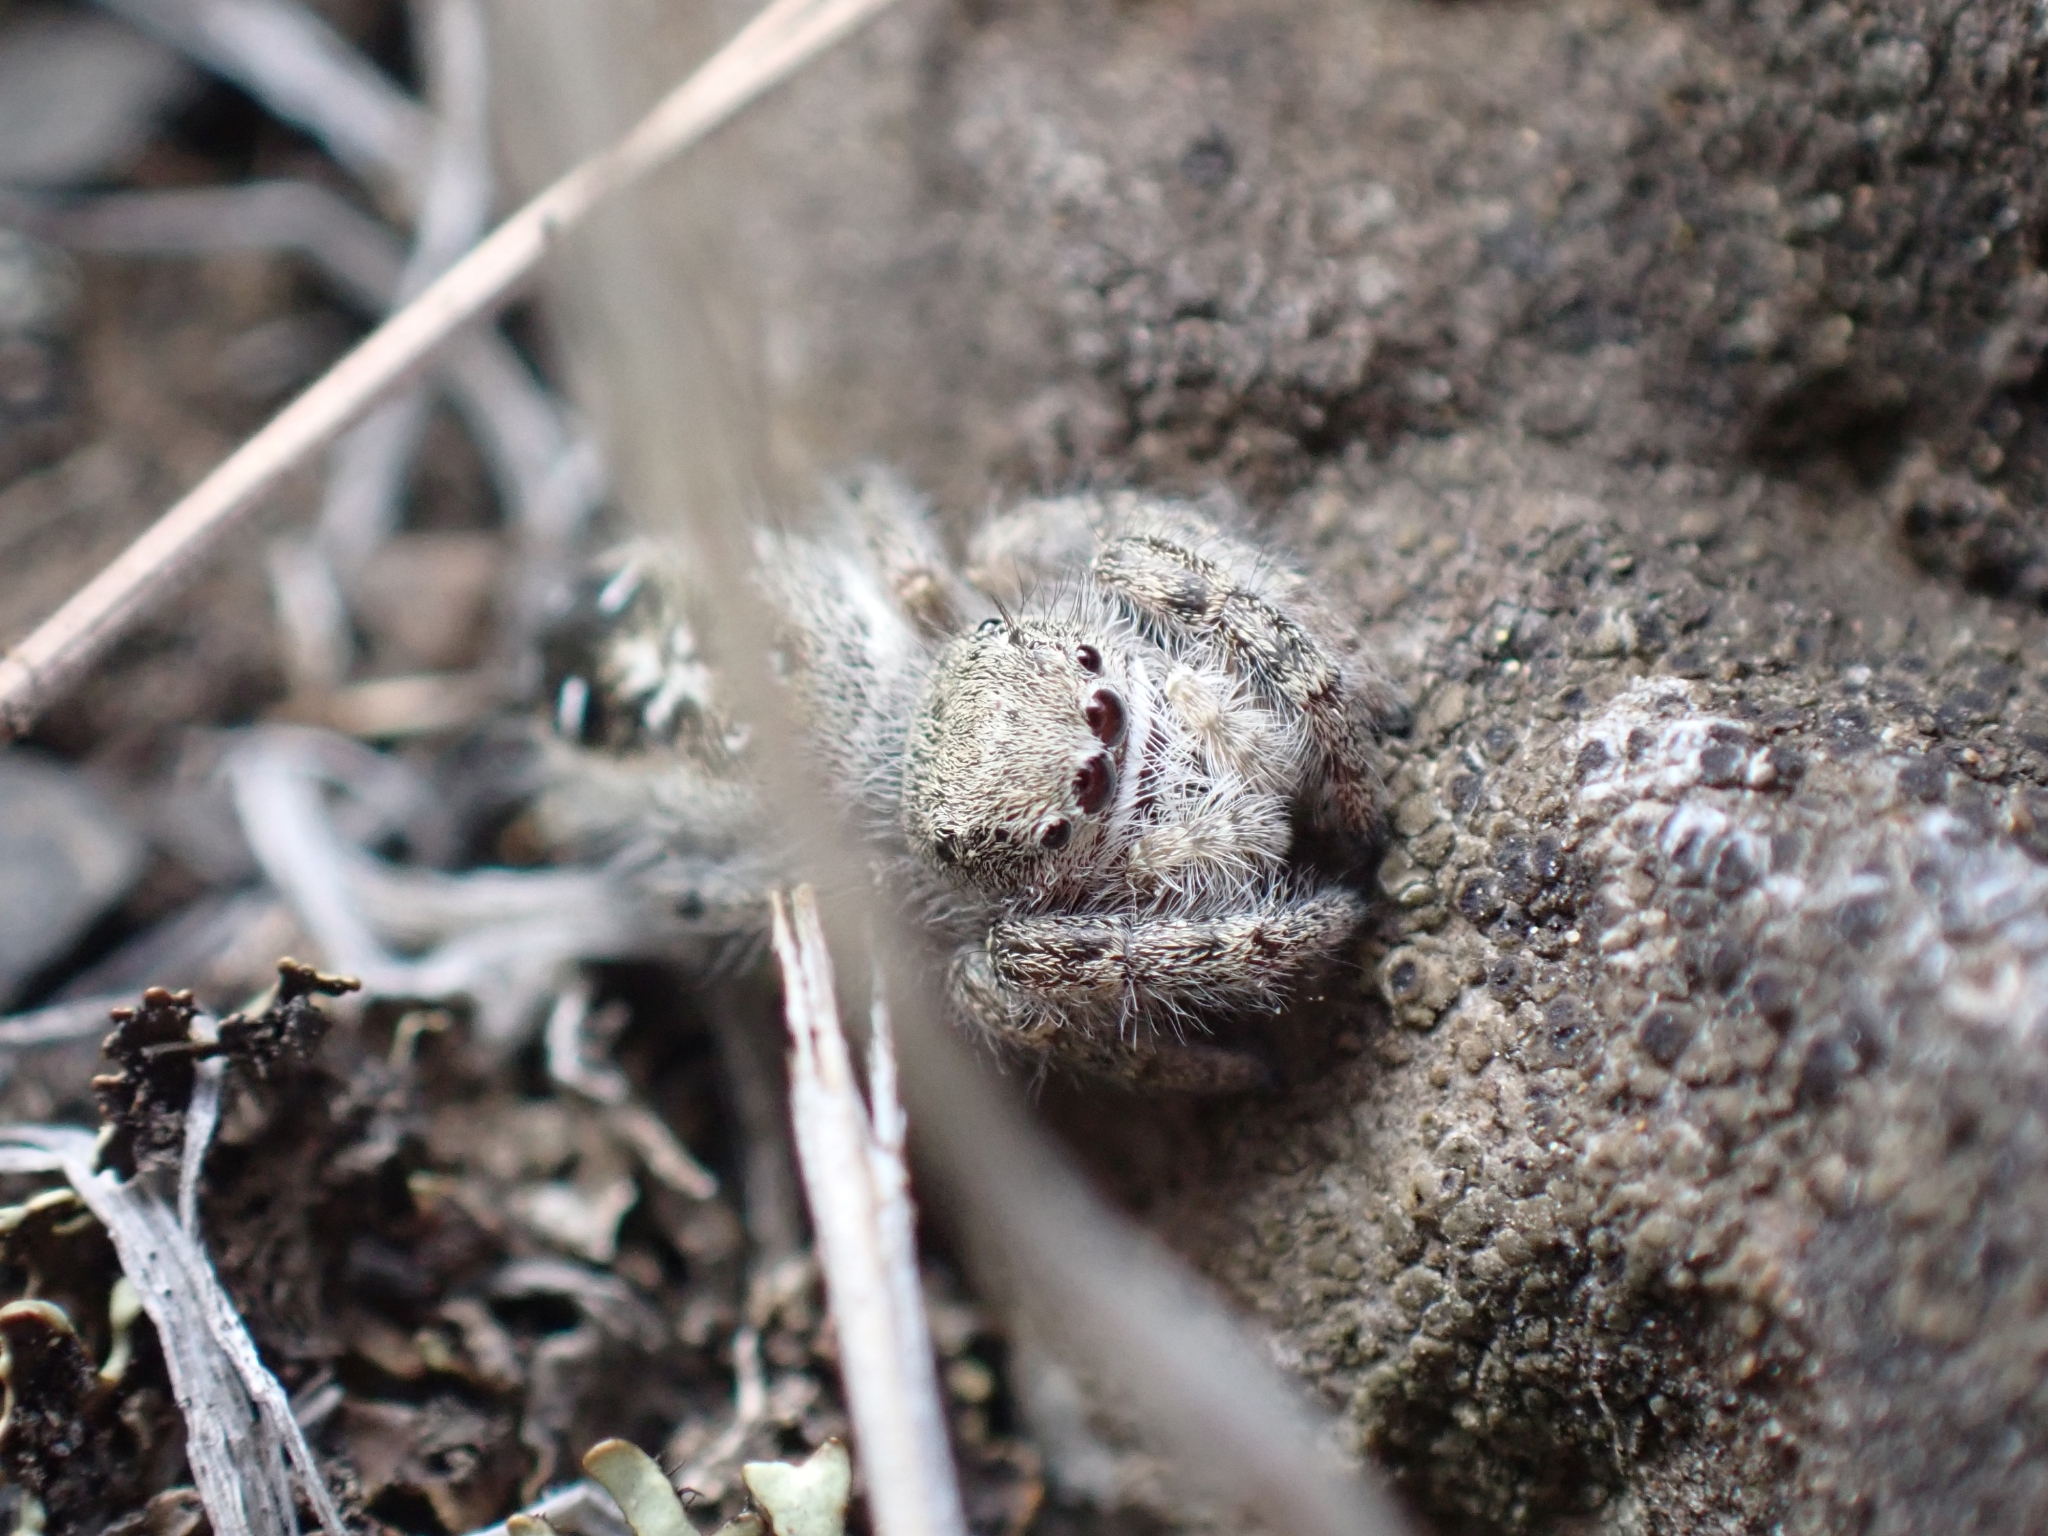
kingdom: Animalia
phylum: Arthropoda
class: Arachnida
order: Araneae
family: Salticidae
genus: Phidippus
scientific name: Phidippus purpuratus
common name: Marbled purple jumping spider
